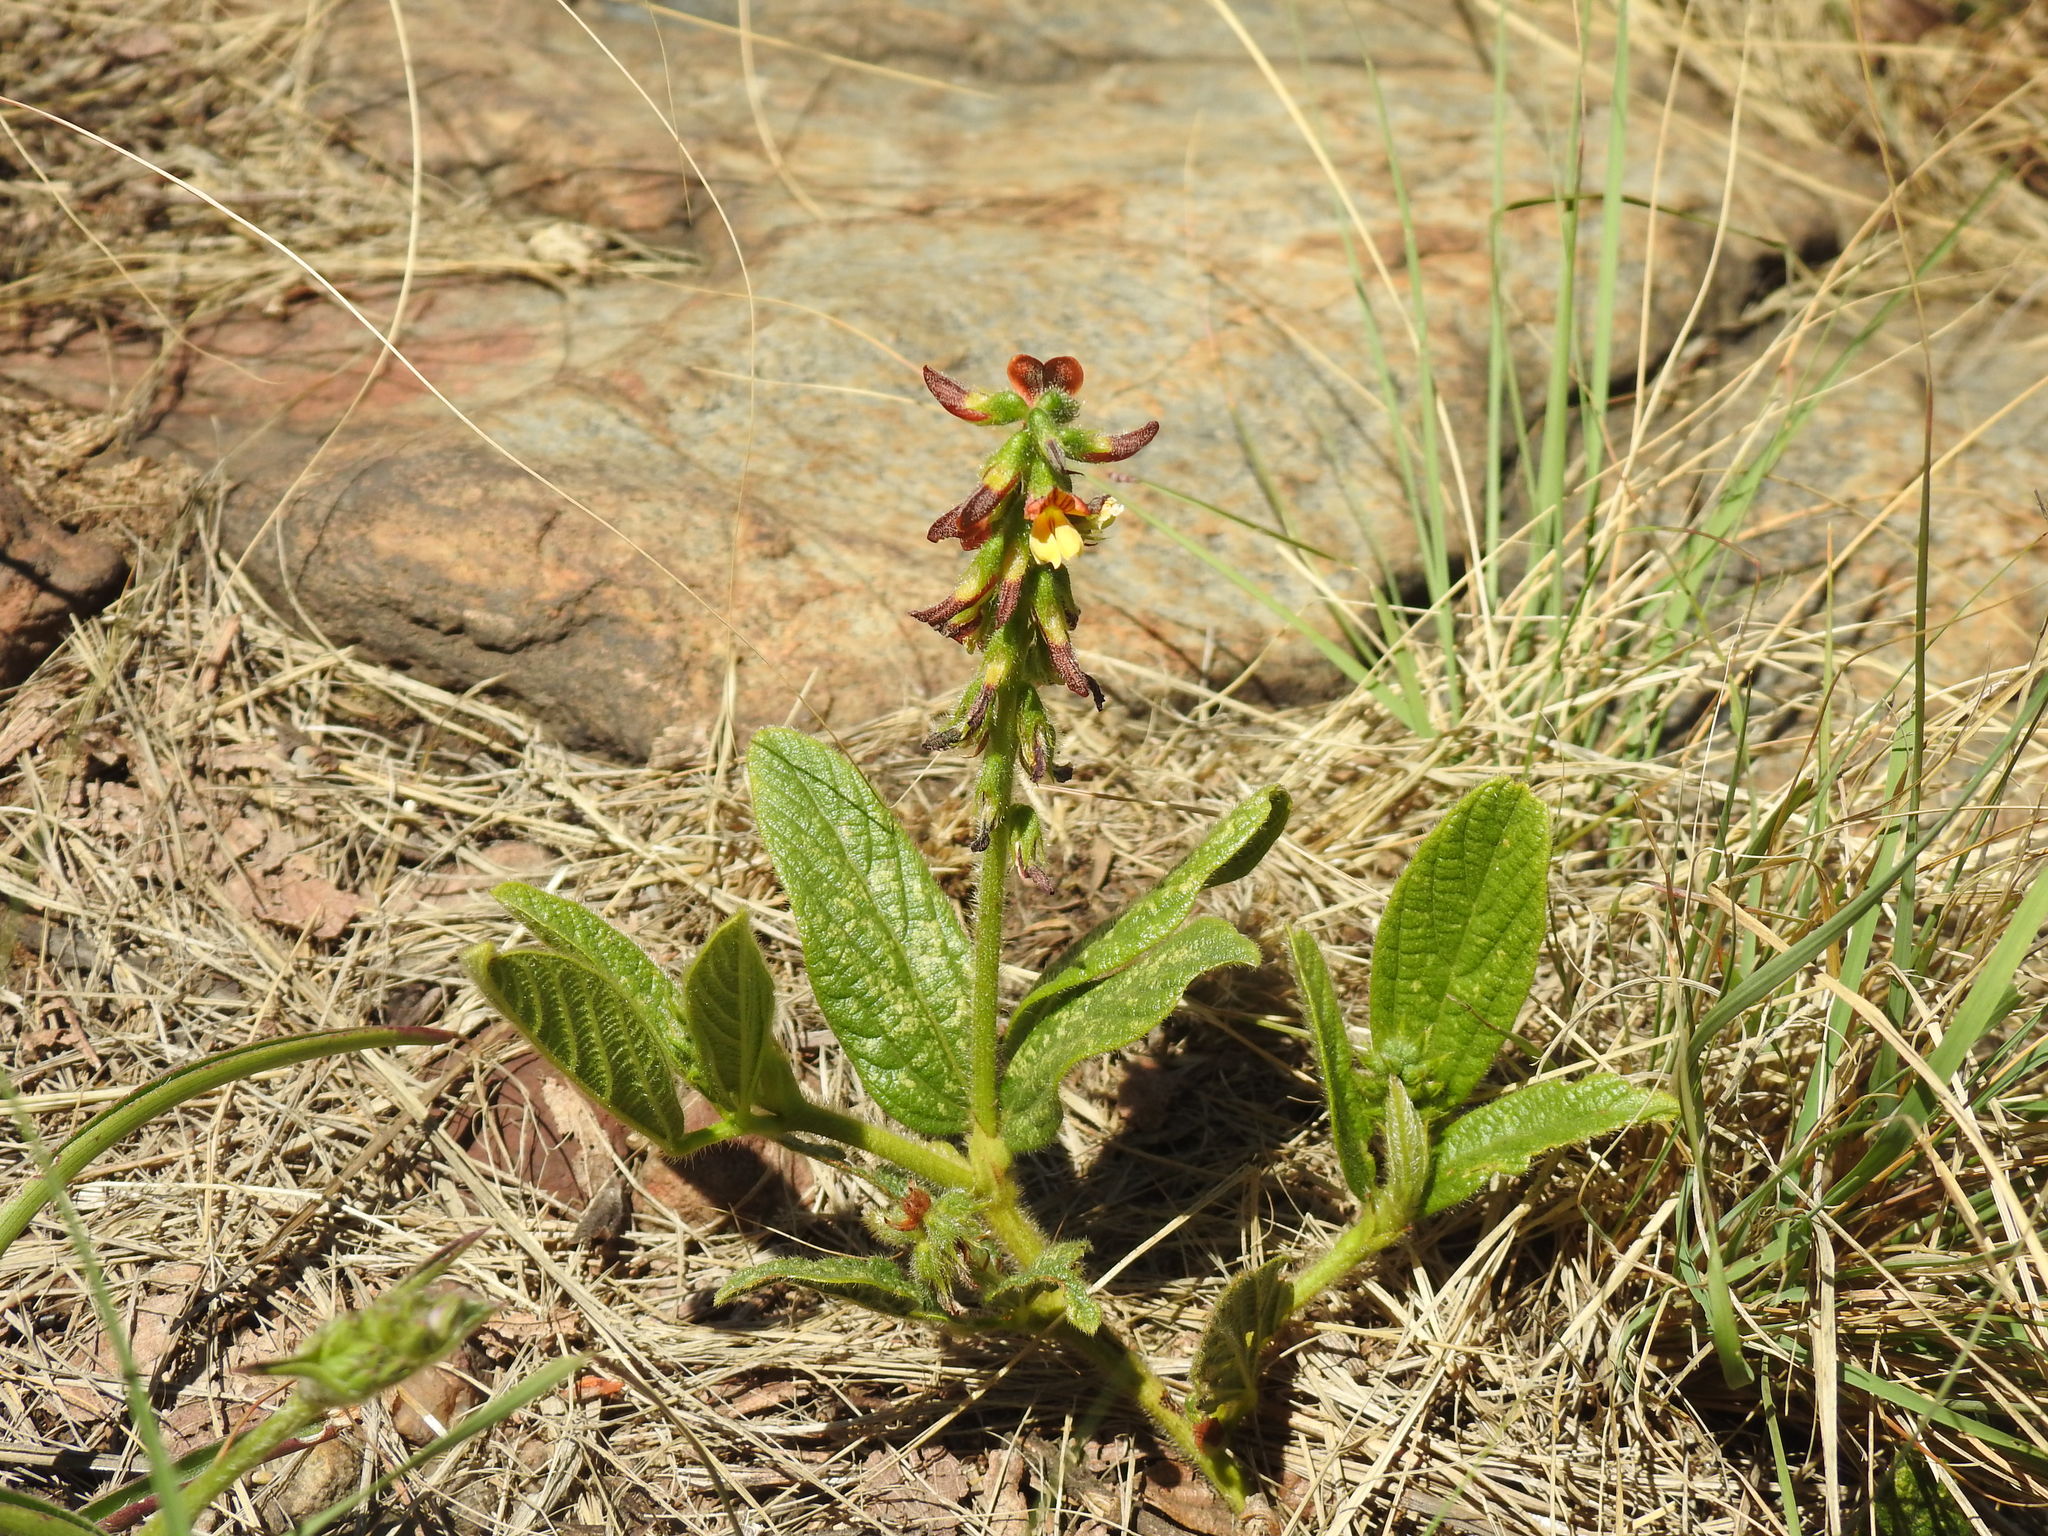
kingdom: Plantae
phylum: Tracheophyta
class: Magnoliopsida
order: Fabales
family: Fabaceae
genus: Eriosema
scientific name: Eriosema cordatum
